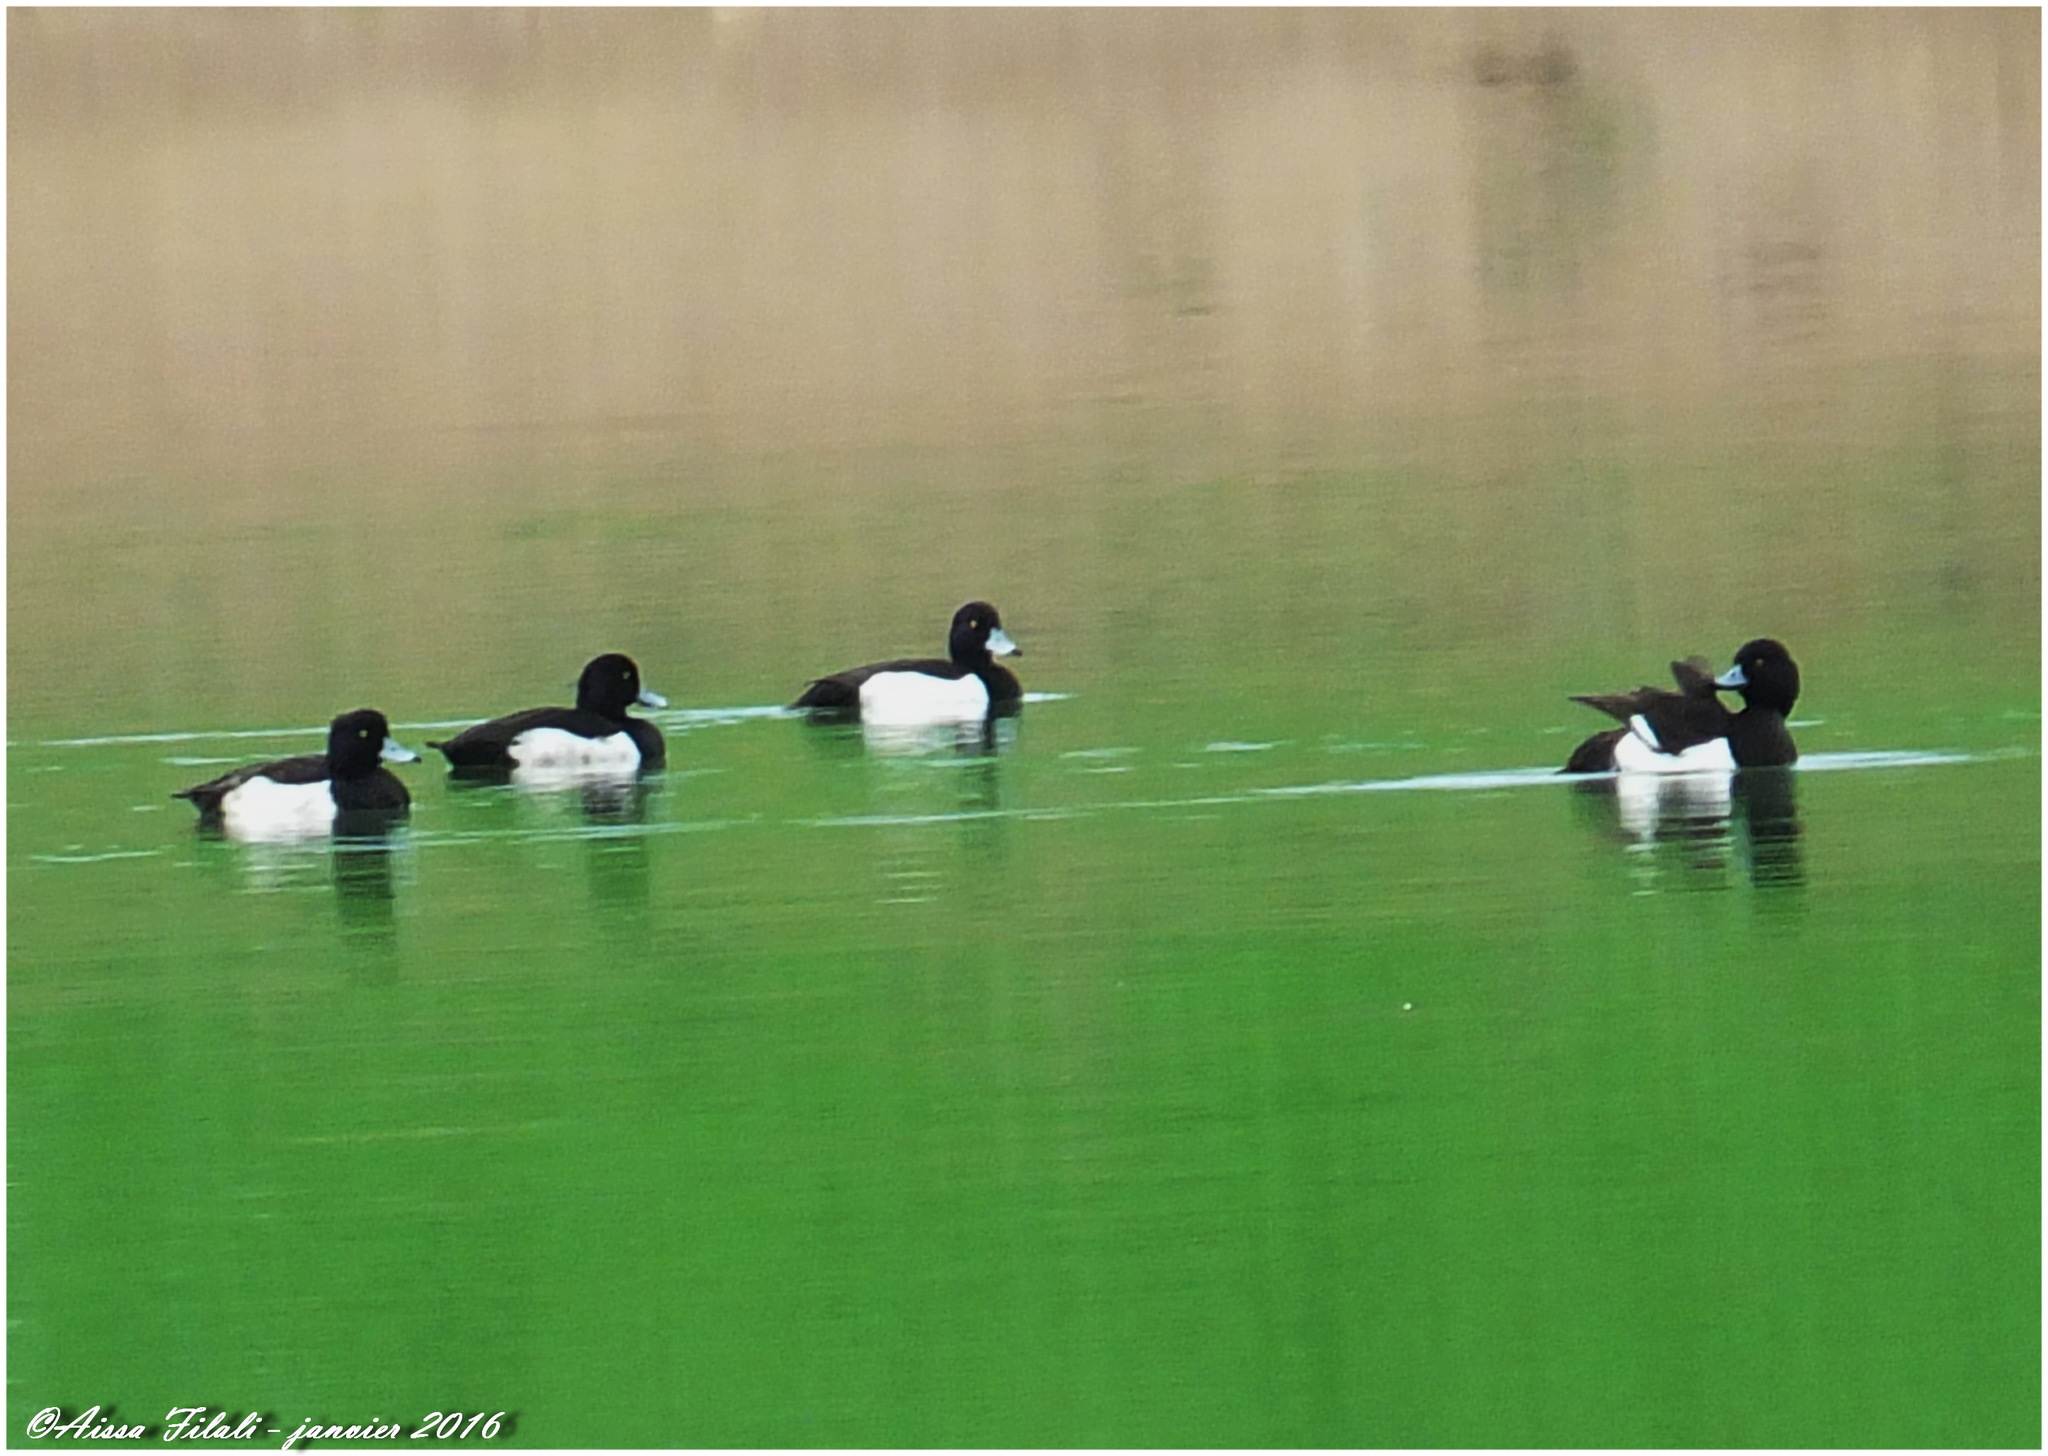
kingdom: Animalia
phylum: Chordata
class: Aves
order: Anseriformes
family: Anatidae
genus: Aythya
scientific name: Aythya fuligula
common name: Tufted duck
